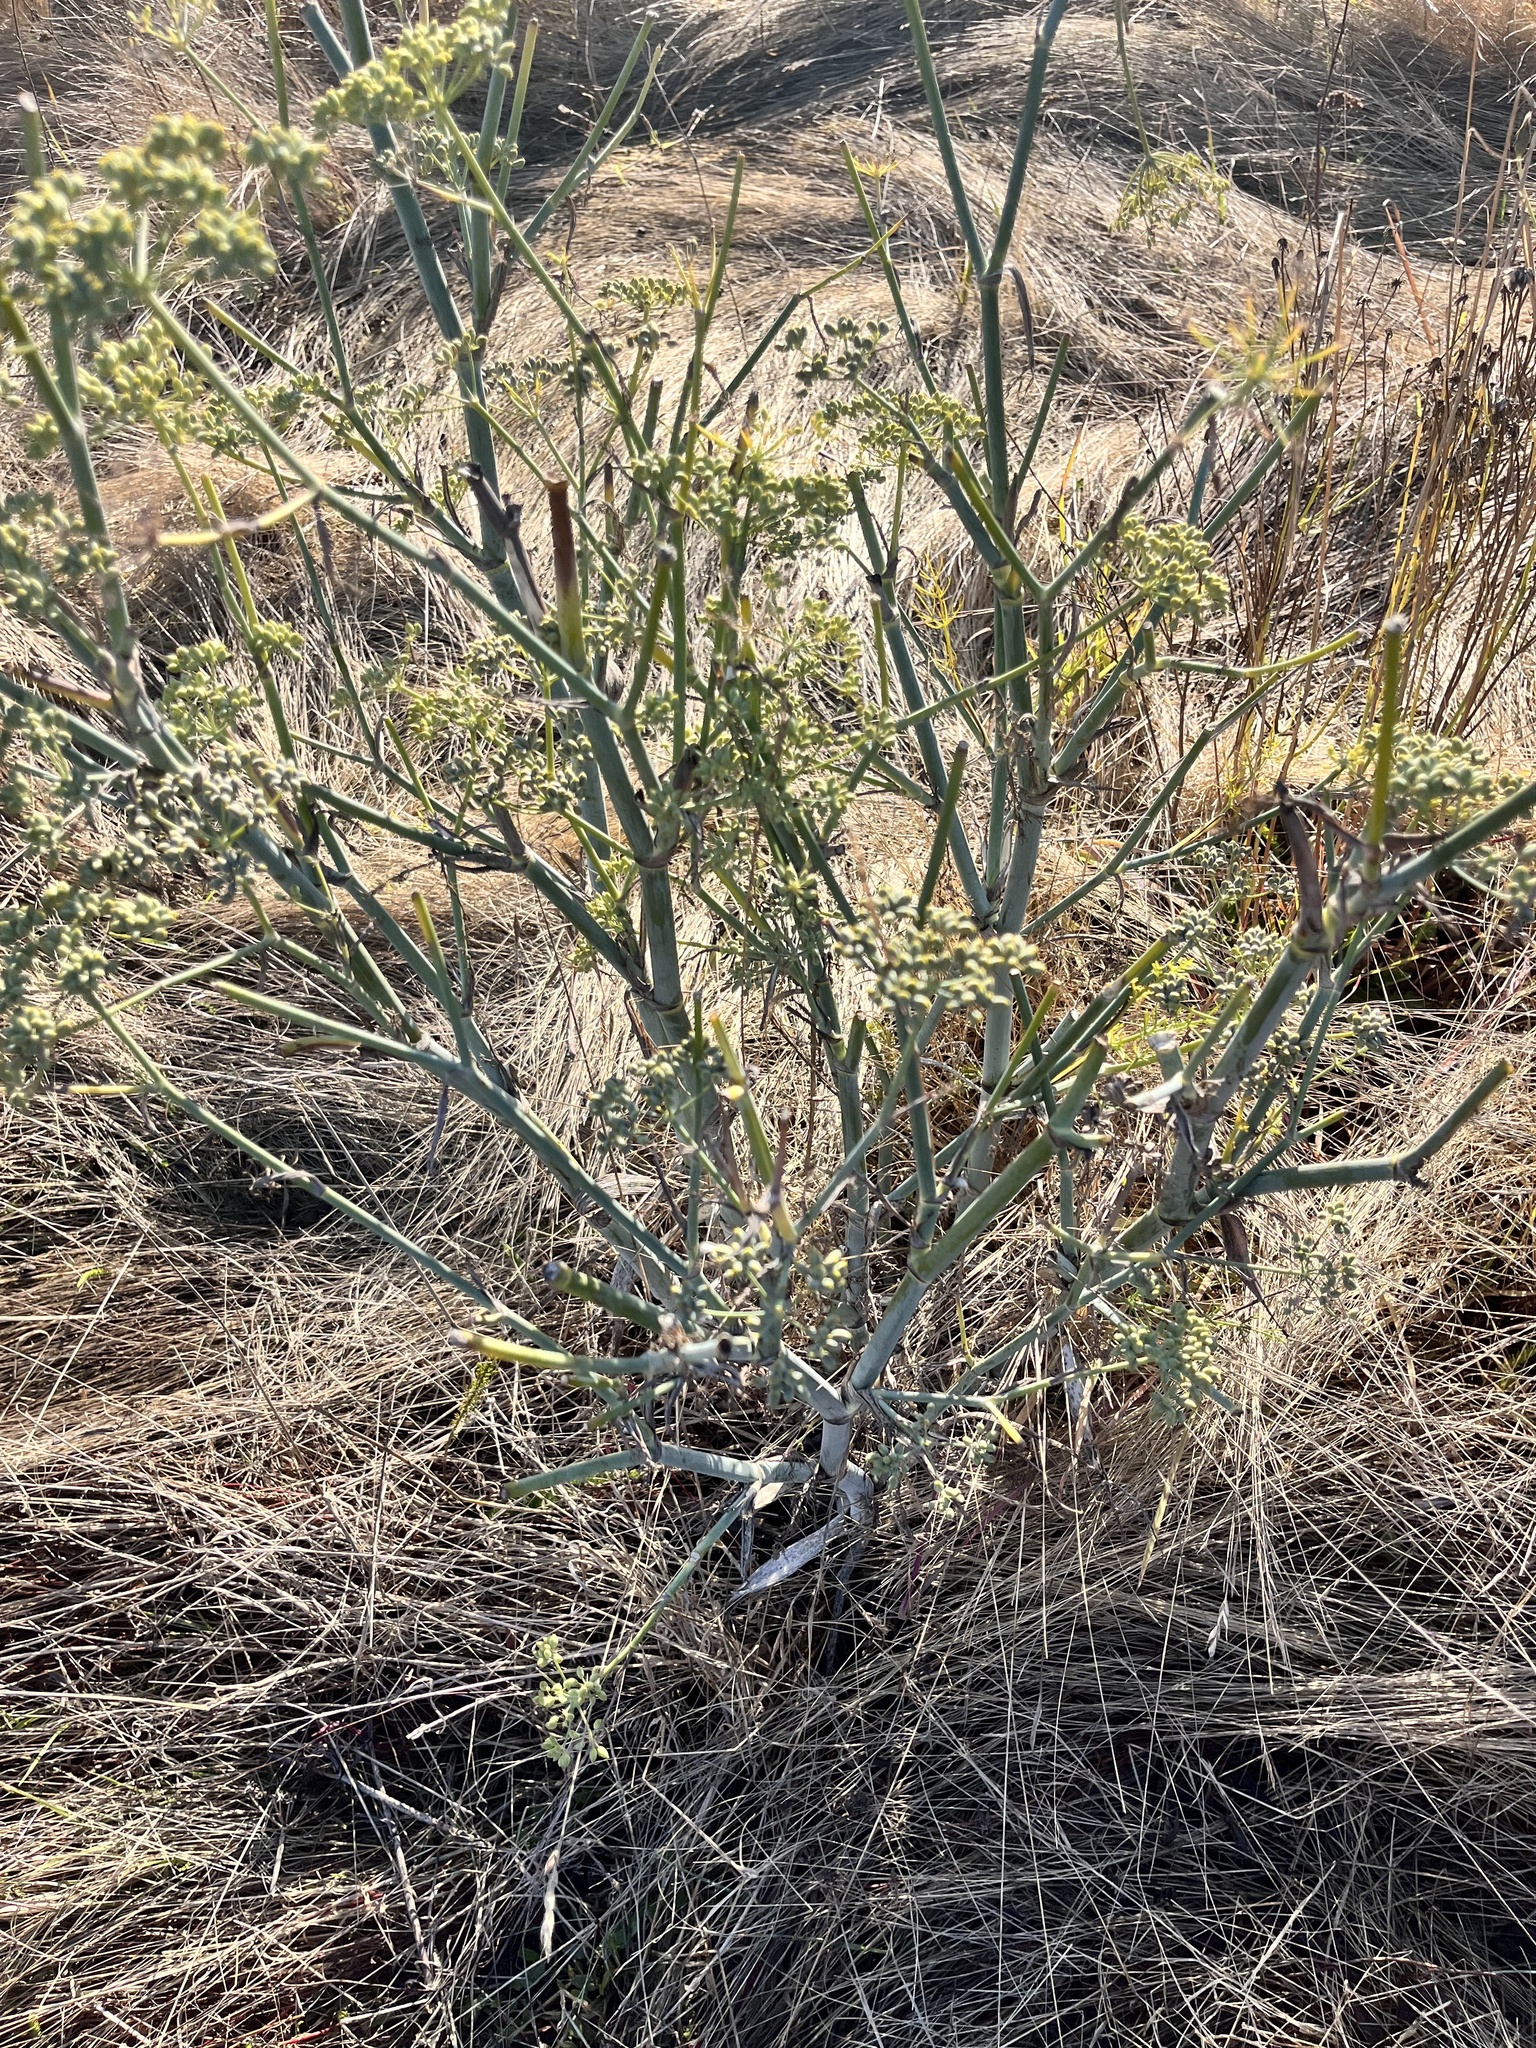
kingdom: Plantae
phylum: Tracheophyta
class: Magnoliopsida
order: Apiales
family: Apiaceae
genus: Foeniculum
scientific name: Foeniculum vulgare
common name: Fennel
